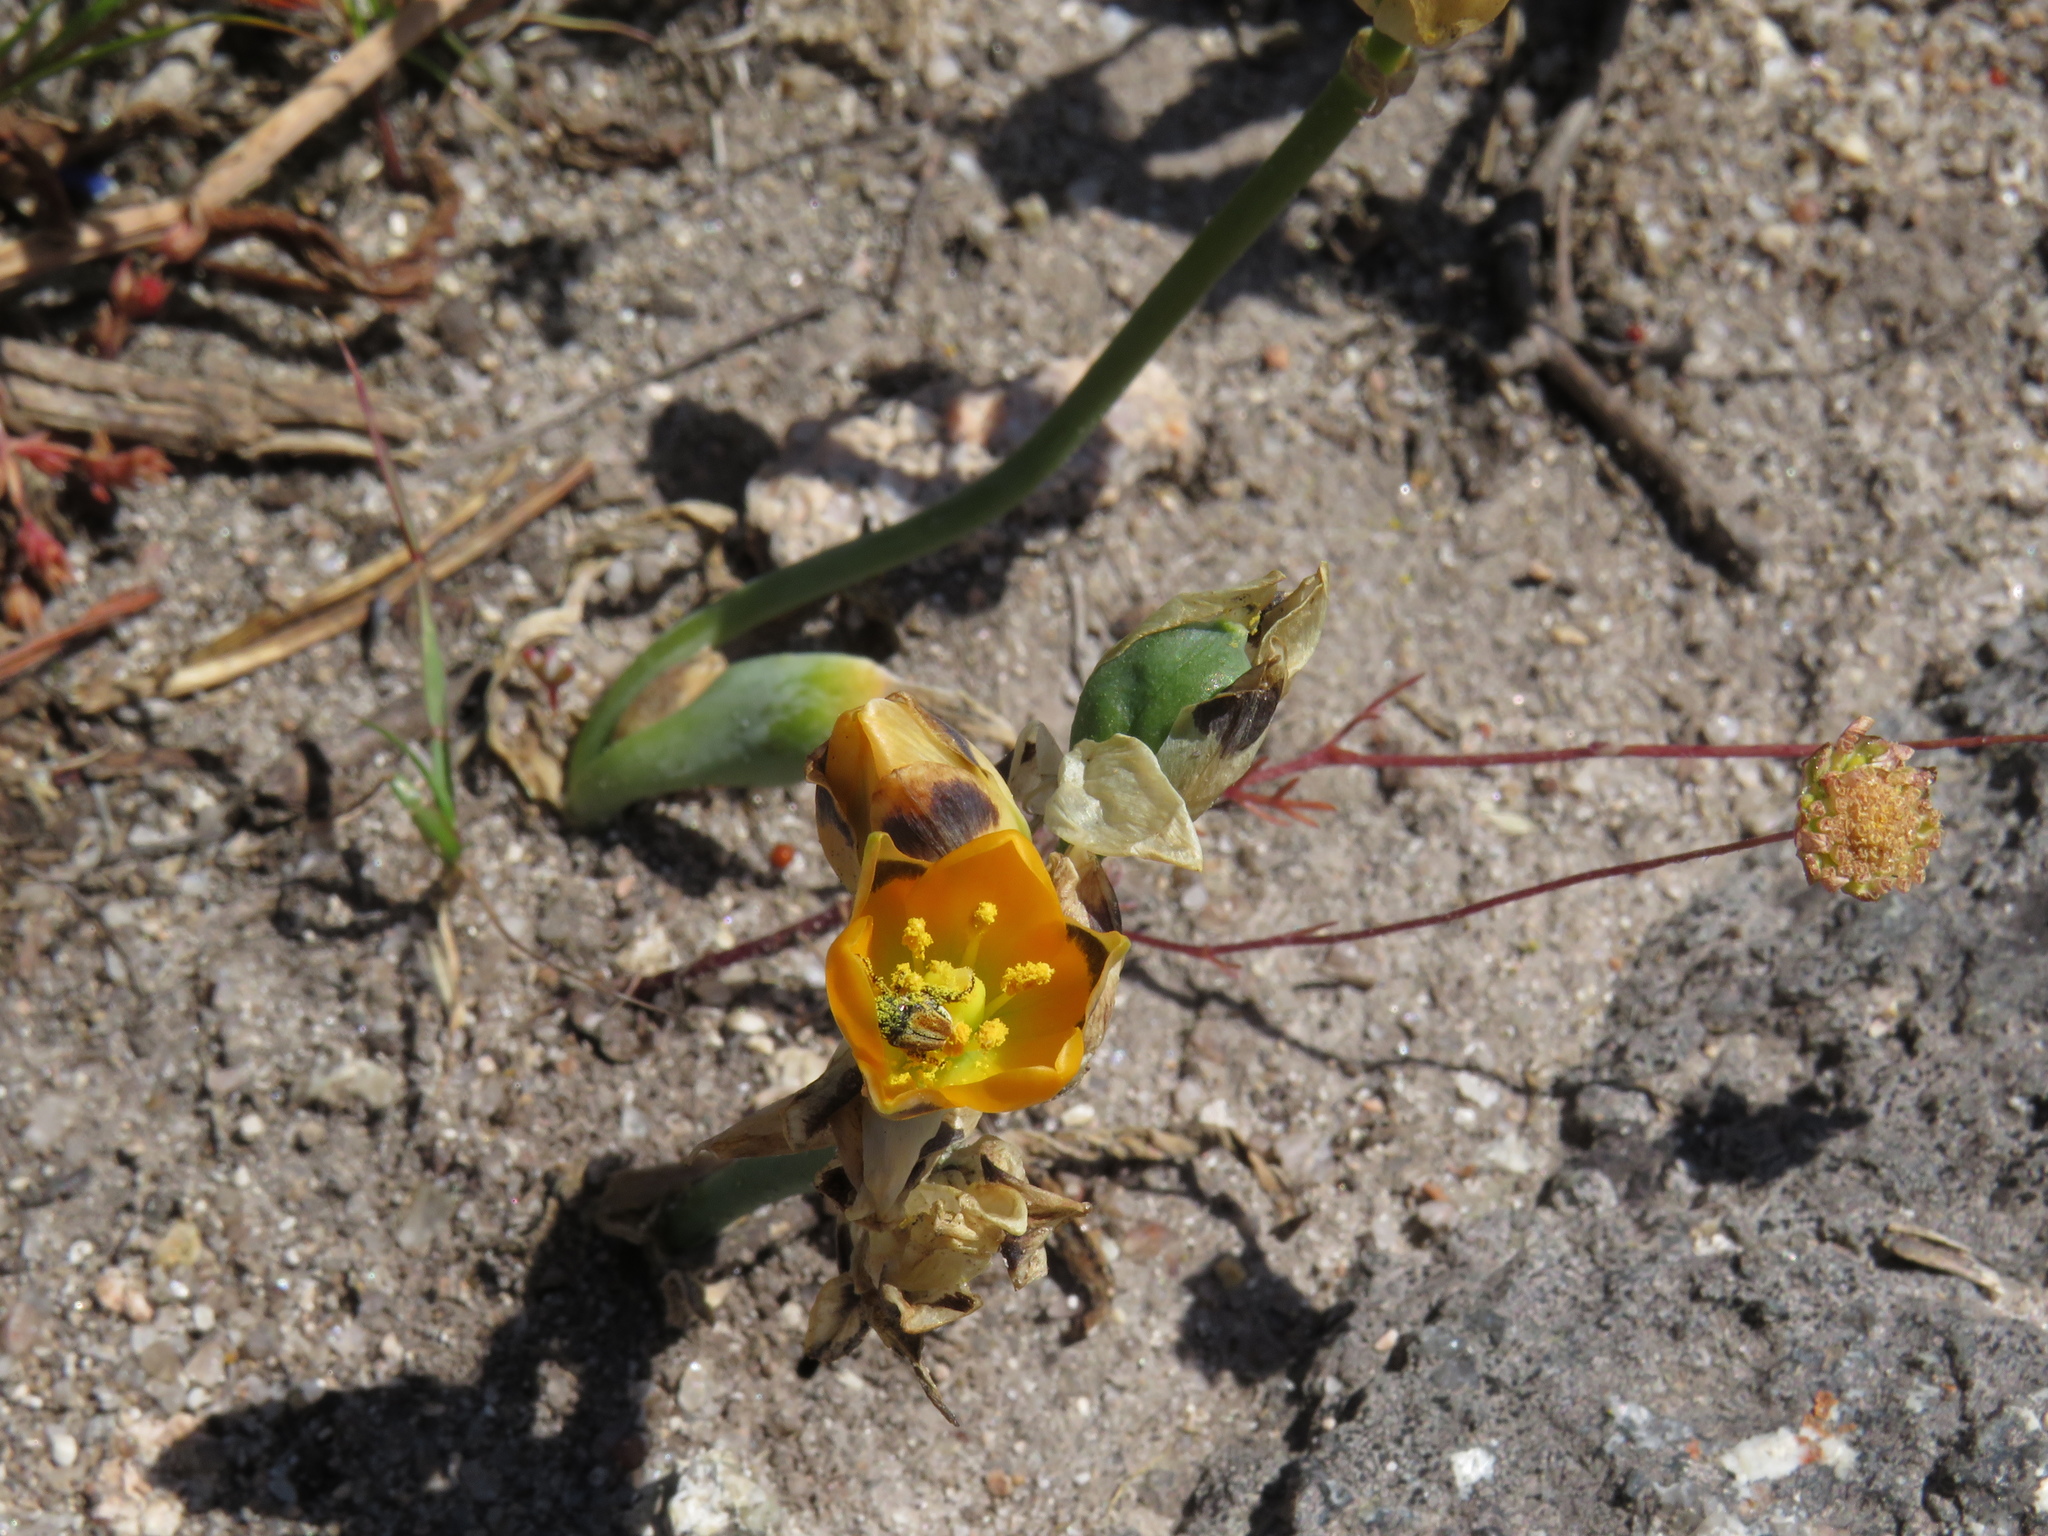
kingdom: Plantae
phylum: Tracheophyta
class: Liliopsida
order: Asparagales
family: Asparagaceae
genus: Ornithogalum
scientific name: Ornithogalum maculatum
